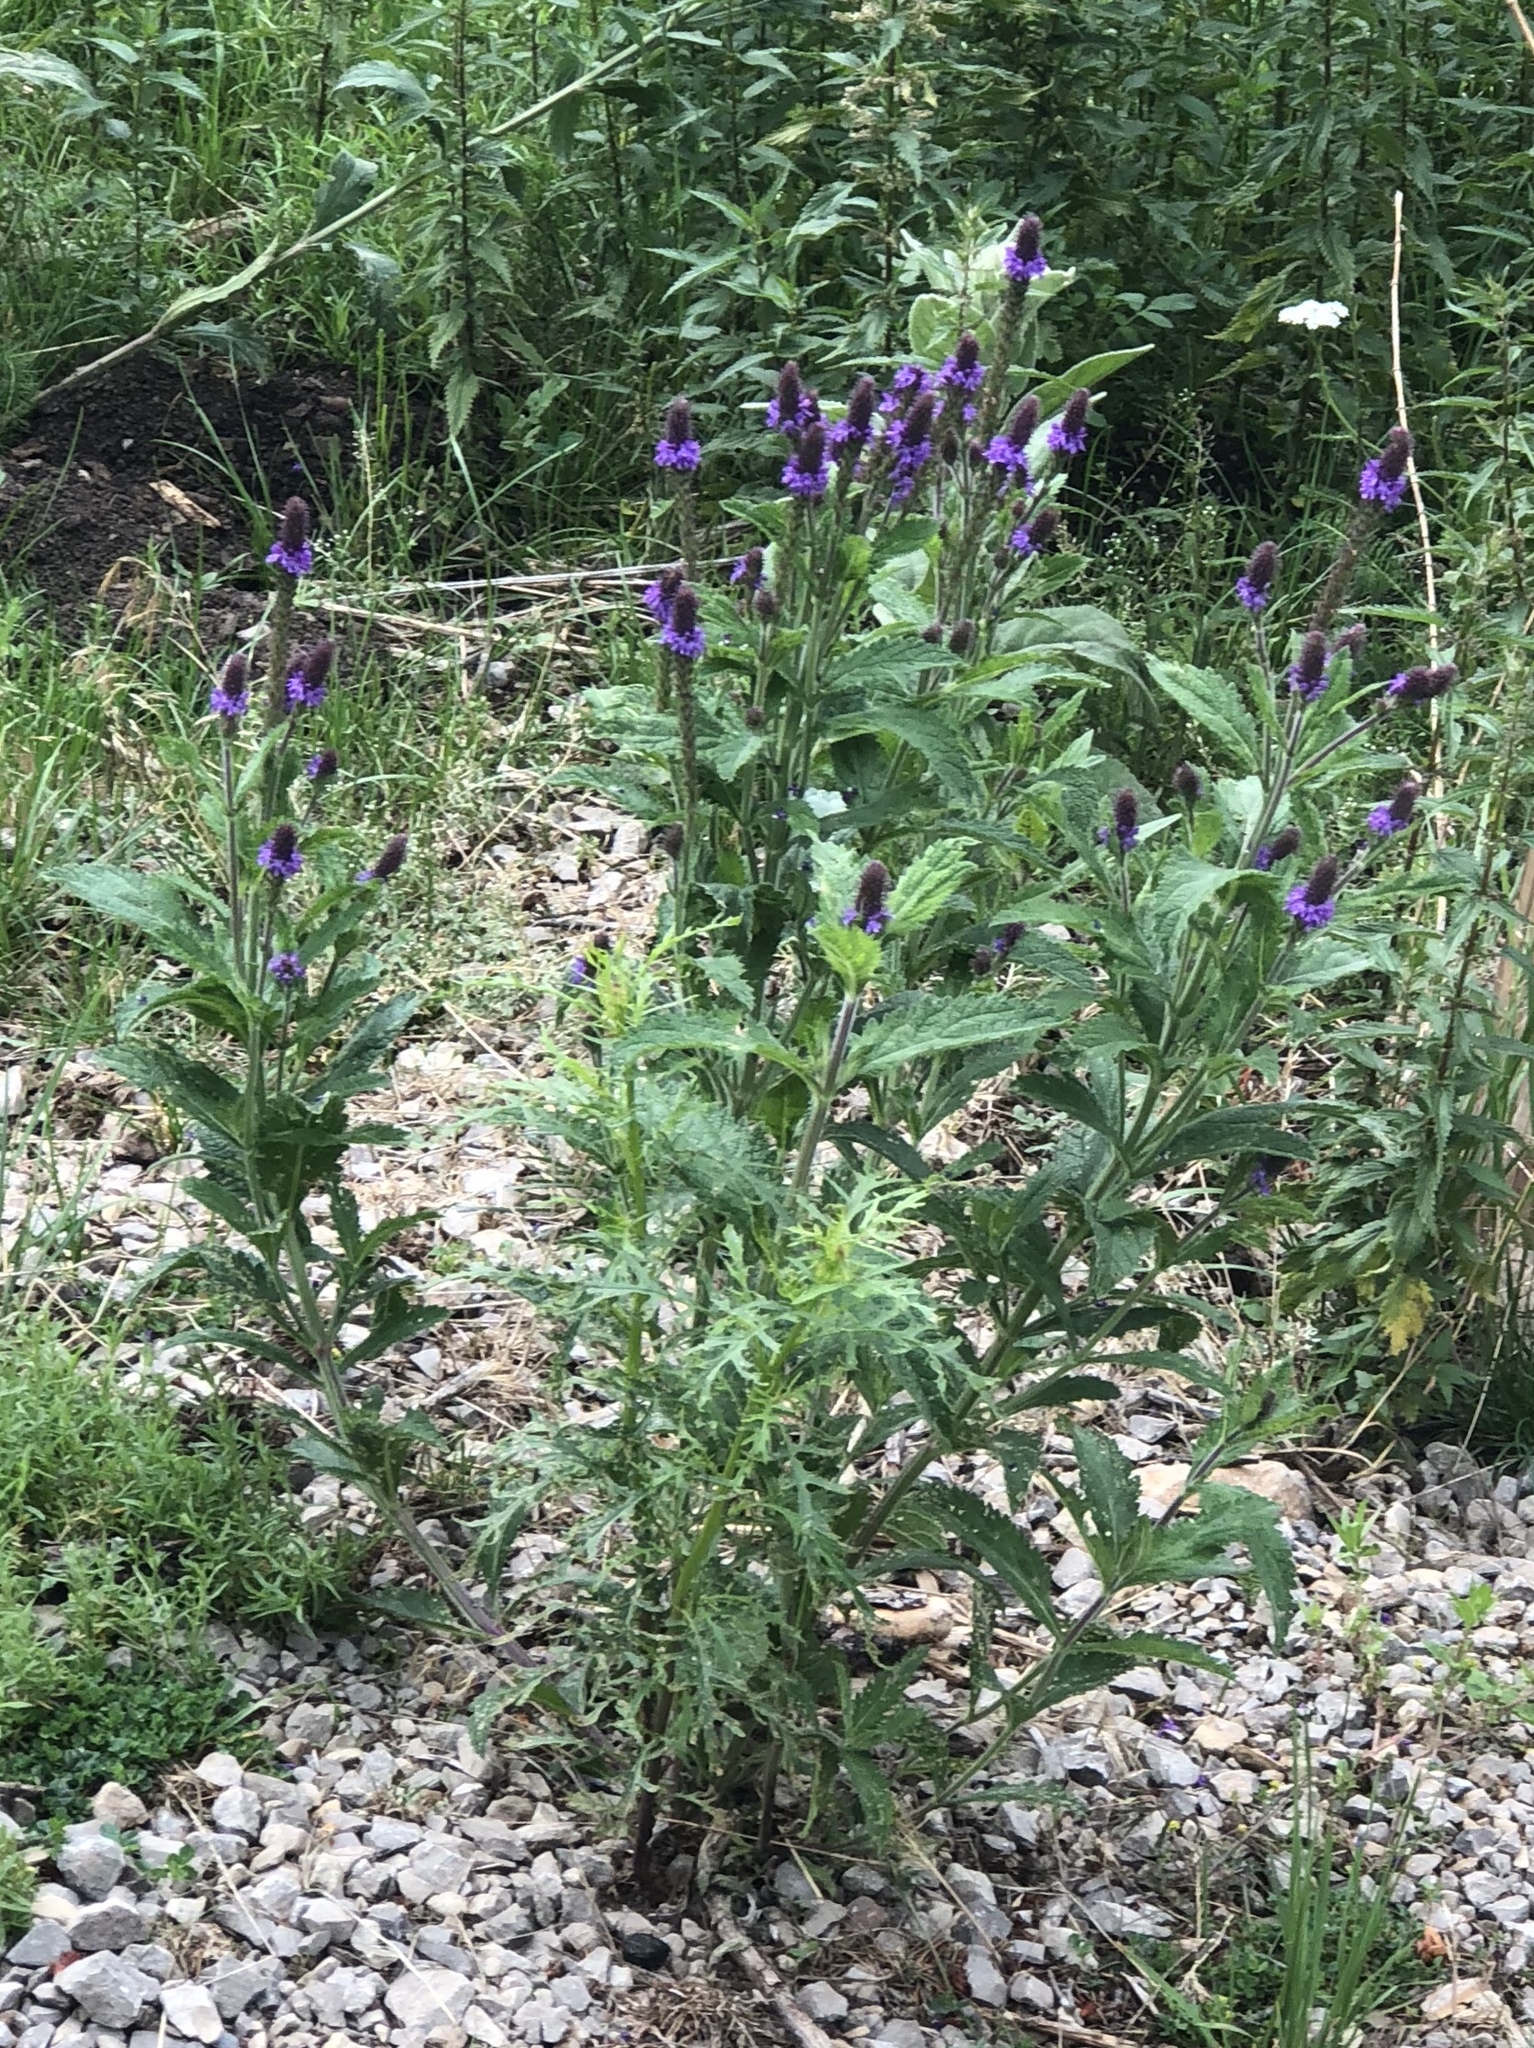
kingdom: Plantae
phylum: Tracheophyta
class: Magnoliopsida
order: Lamiales
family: Verbenaceae
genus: Verbena
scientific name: Verbena macdougalii
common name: New mexico vervain
